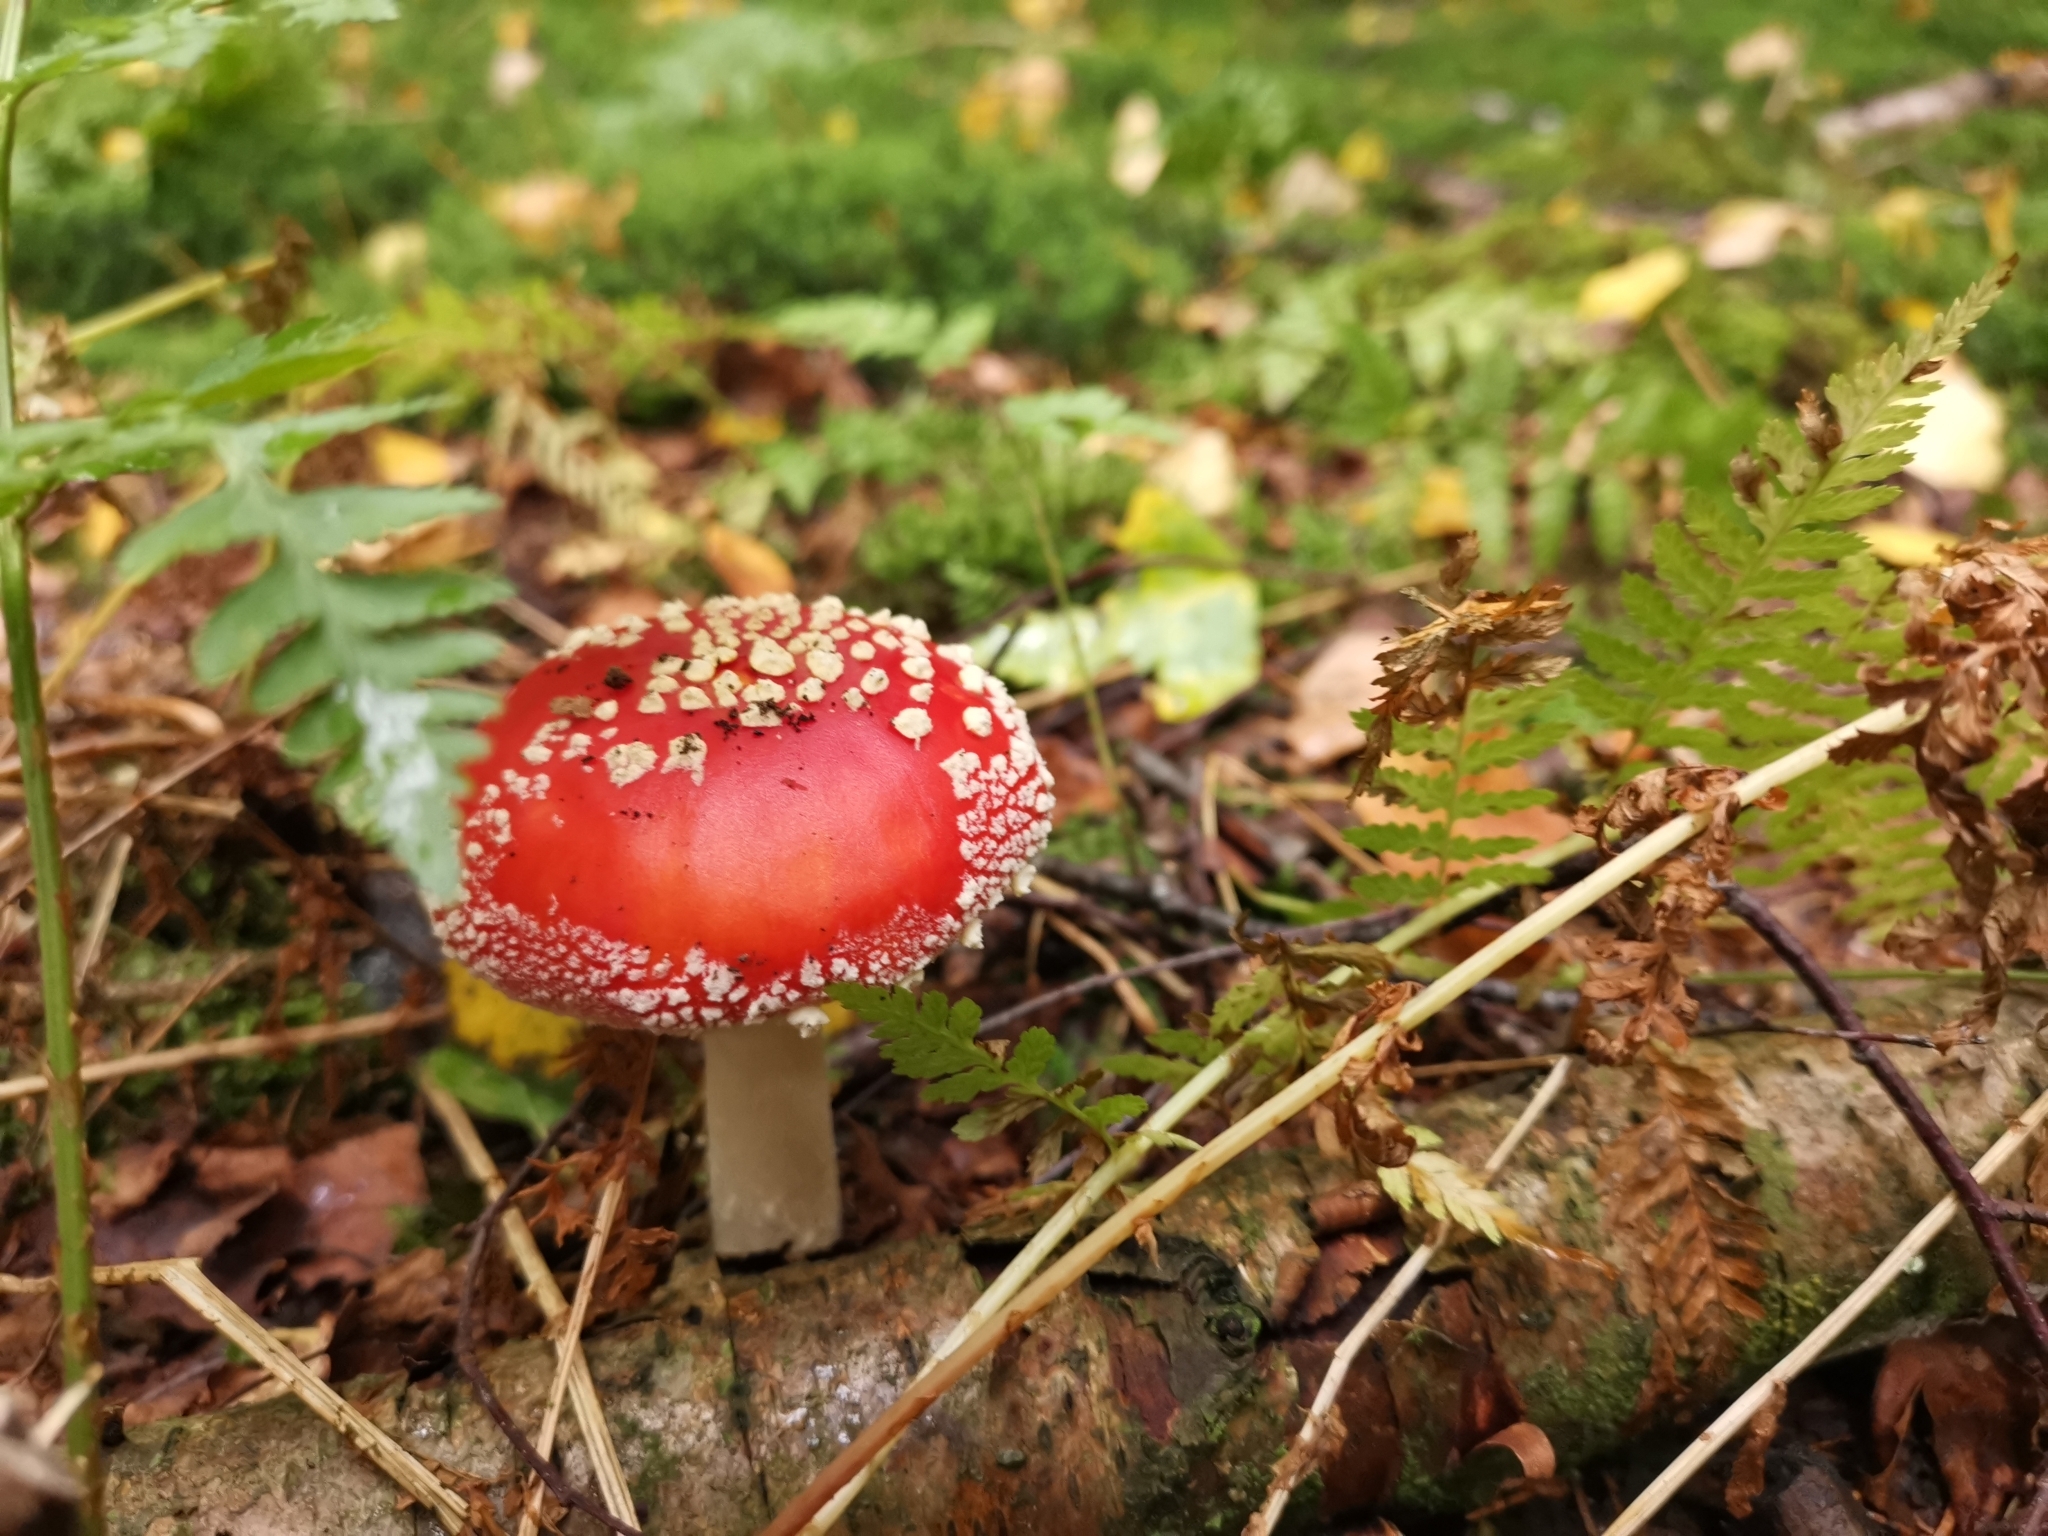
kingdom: Fungi
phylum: Basidiomycota
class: Agaricomycetes
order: Agaricales
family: Amanitaceae
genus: Amanita
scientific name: Amanita muscaria
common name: Fly agaric
